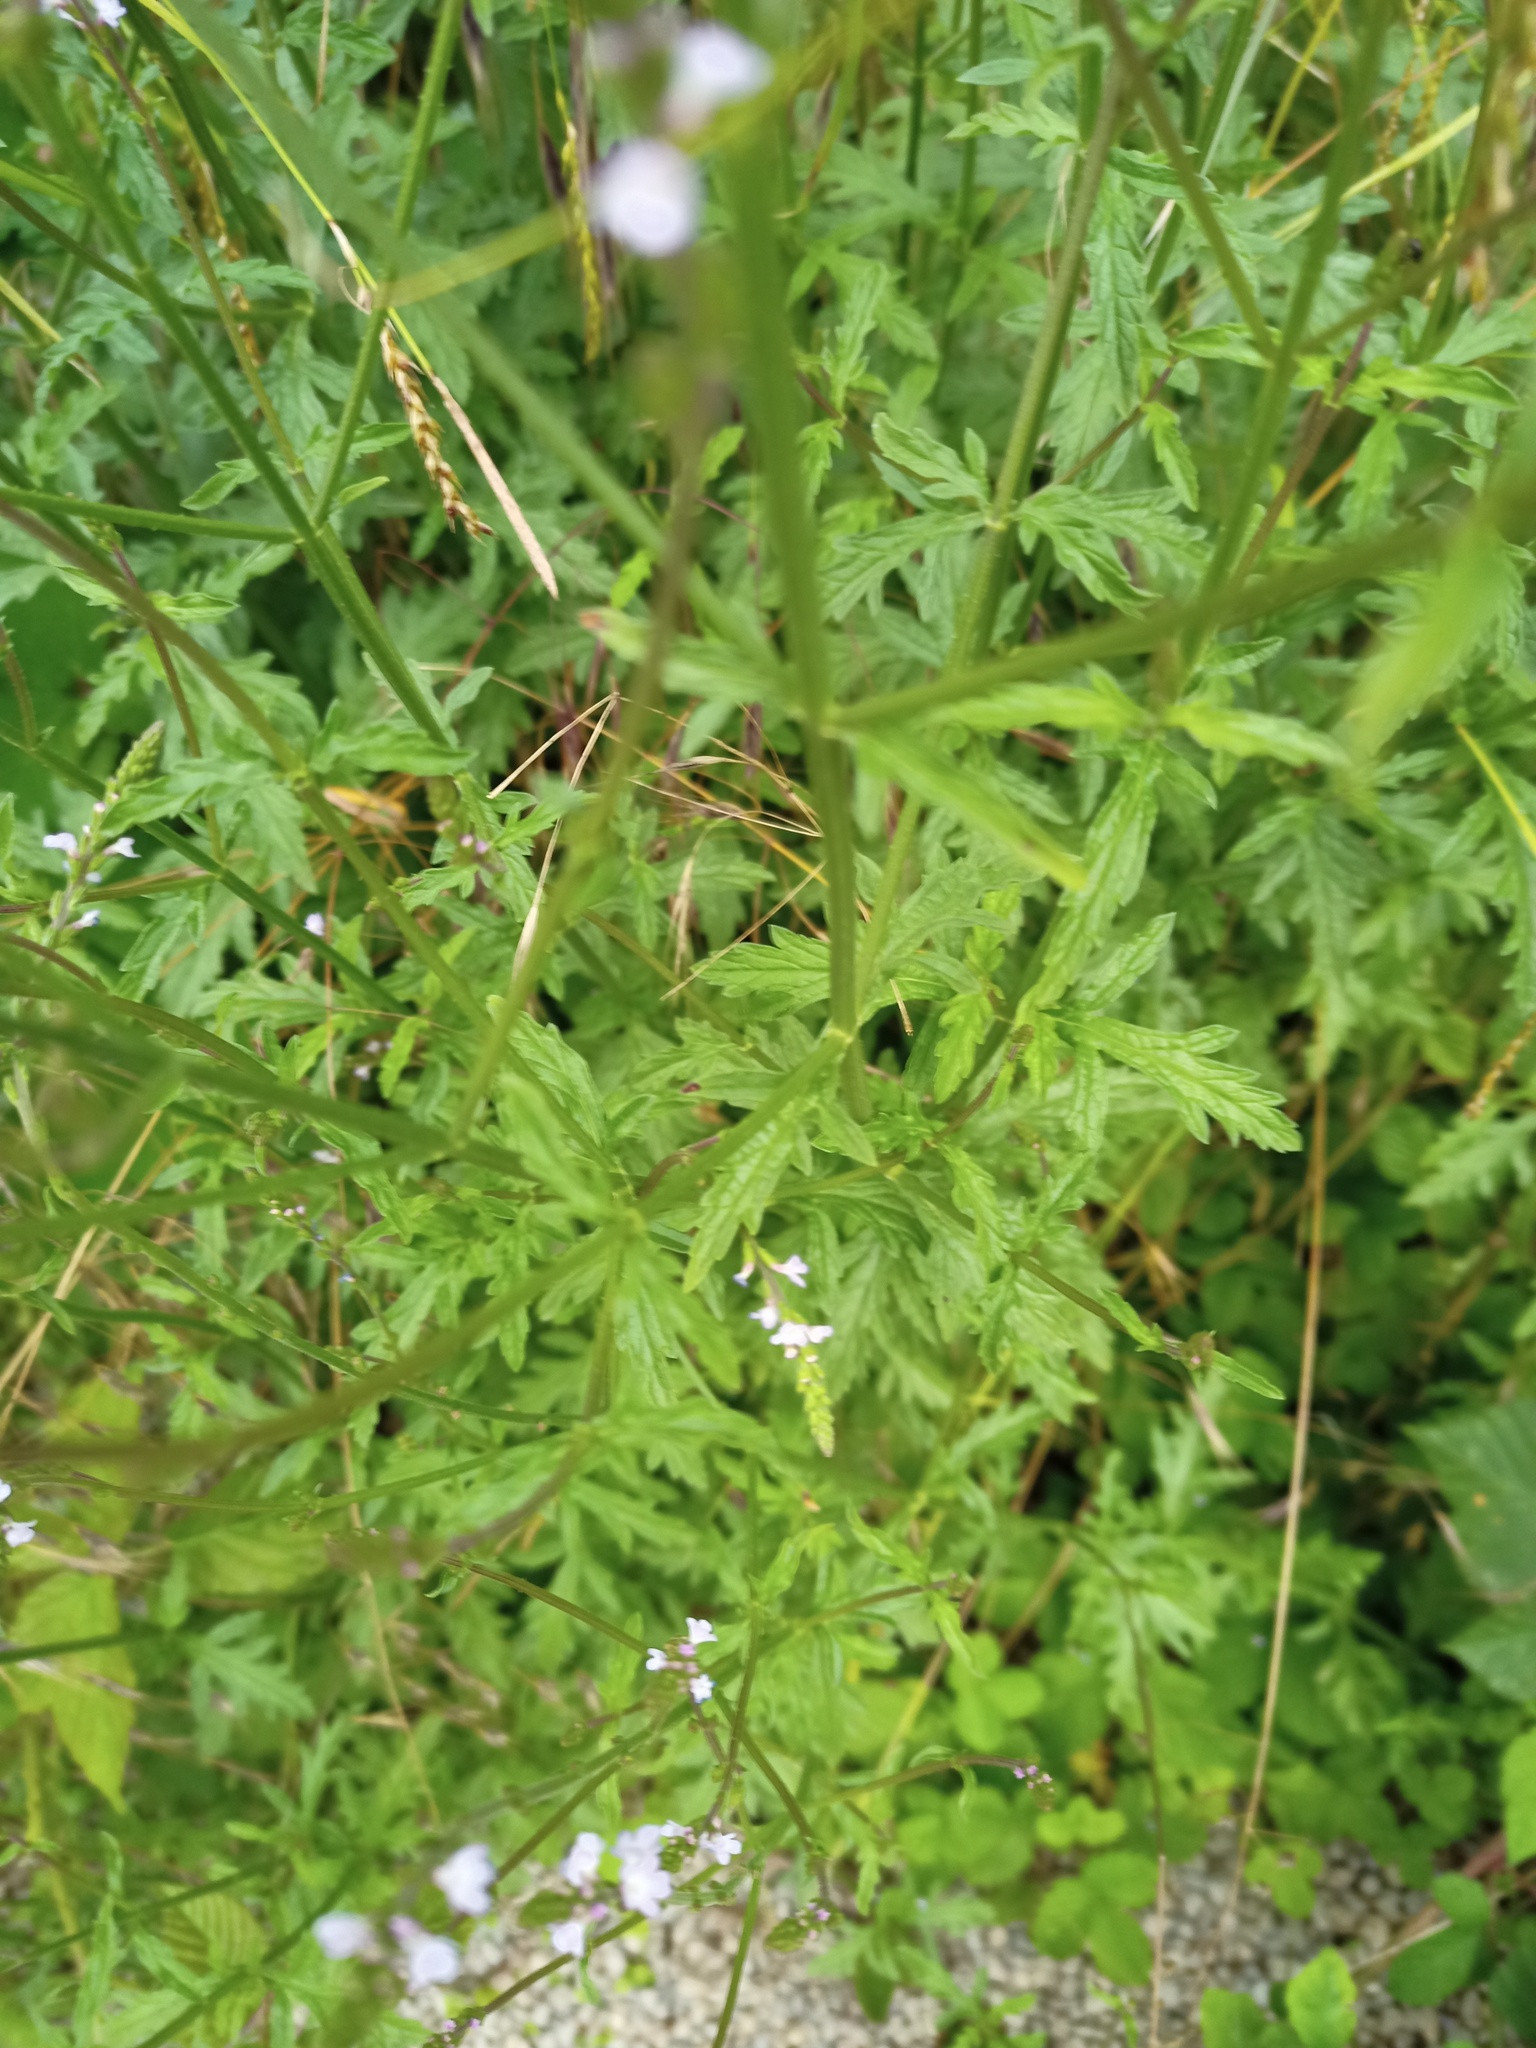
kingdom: Plantae
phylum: Tracheophyta
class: Magnoliopsida
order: Lamiales
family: Verbenaceae
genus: Verbena
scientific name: Verbena officinalis
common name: Vervain
